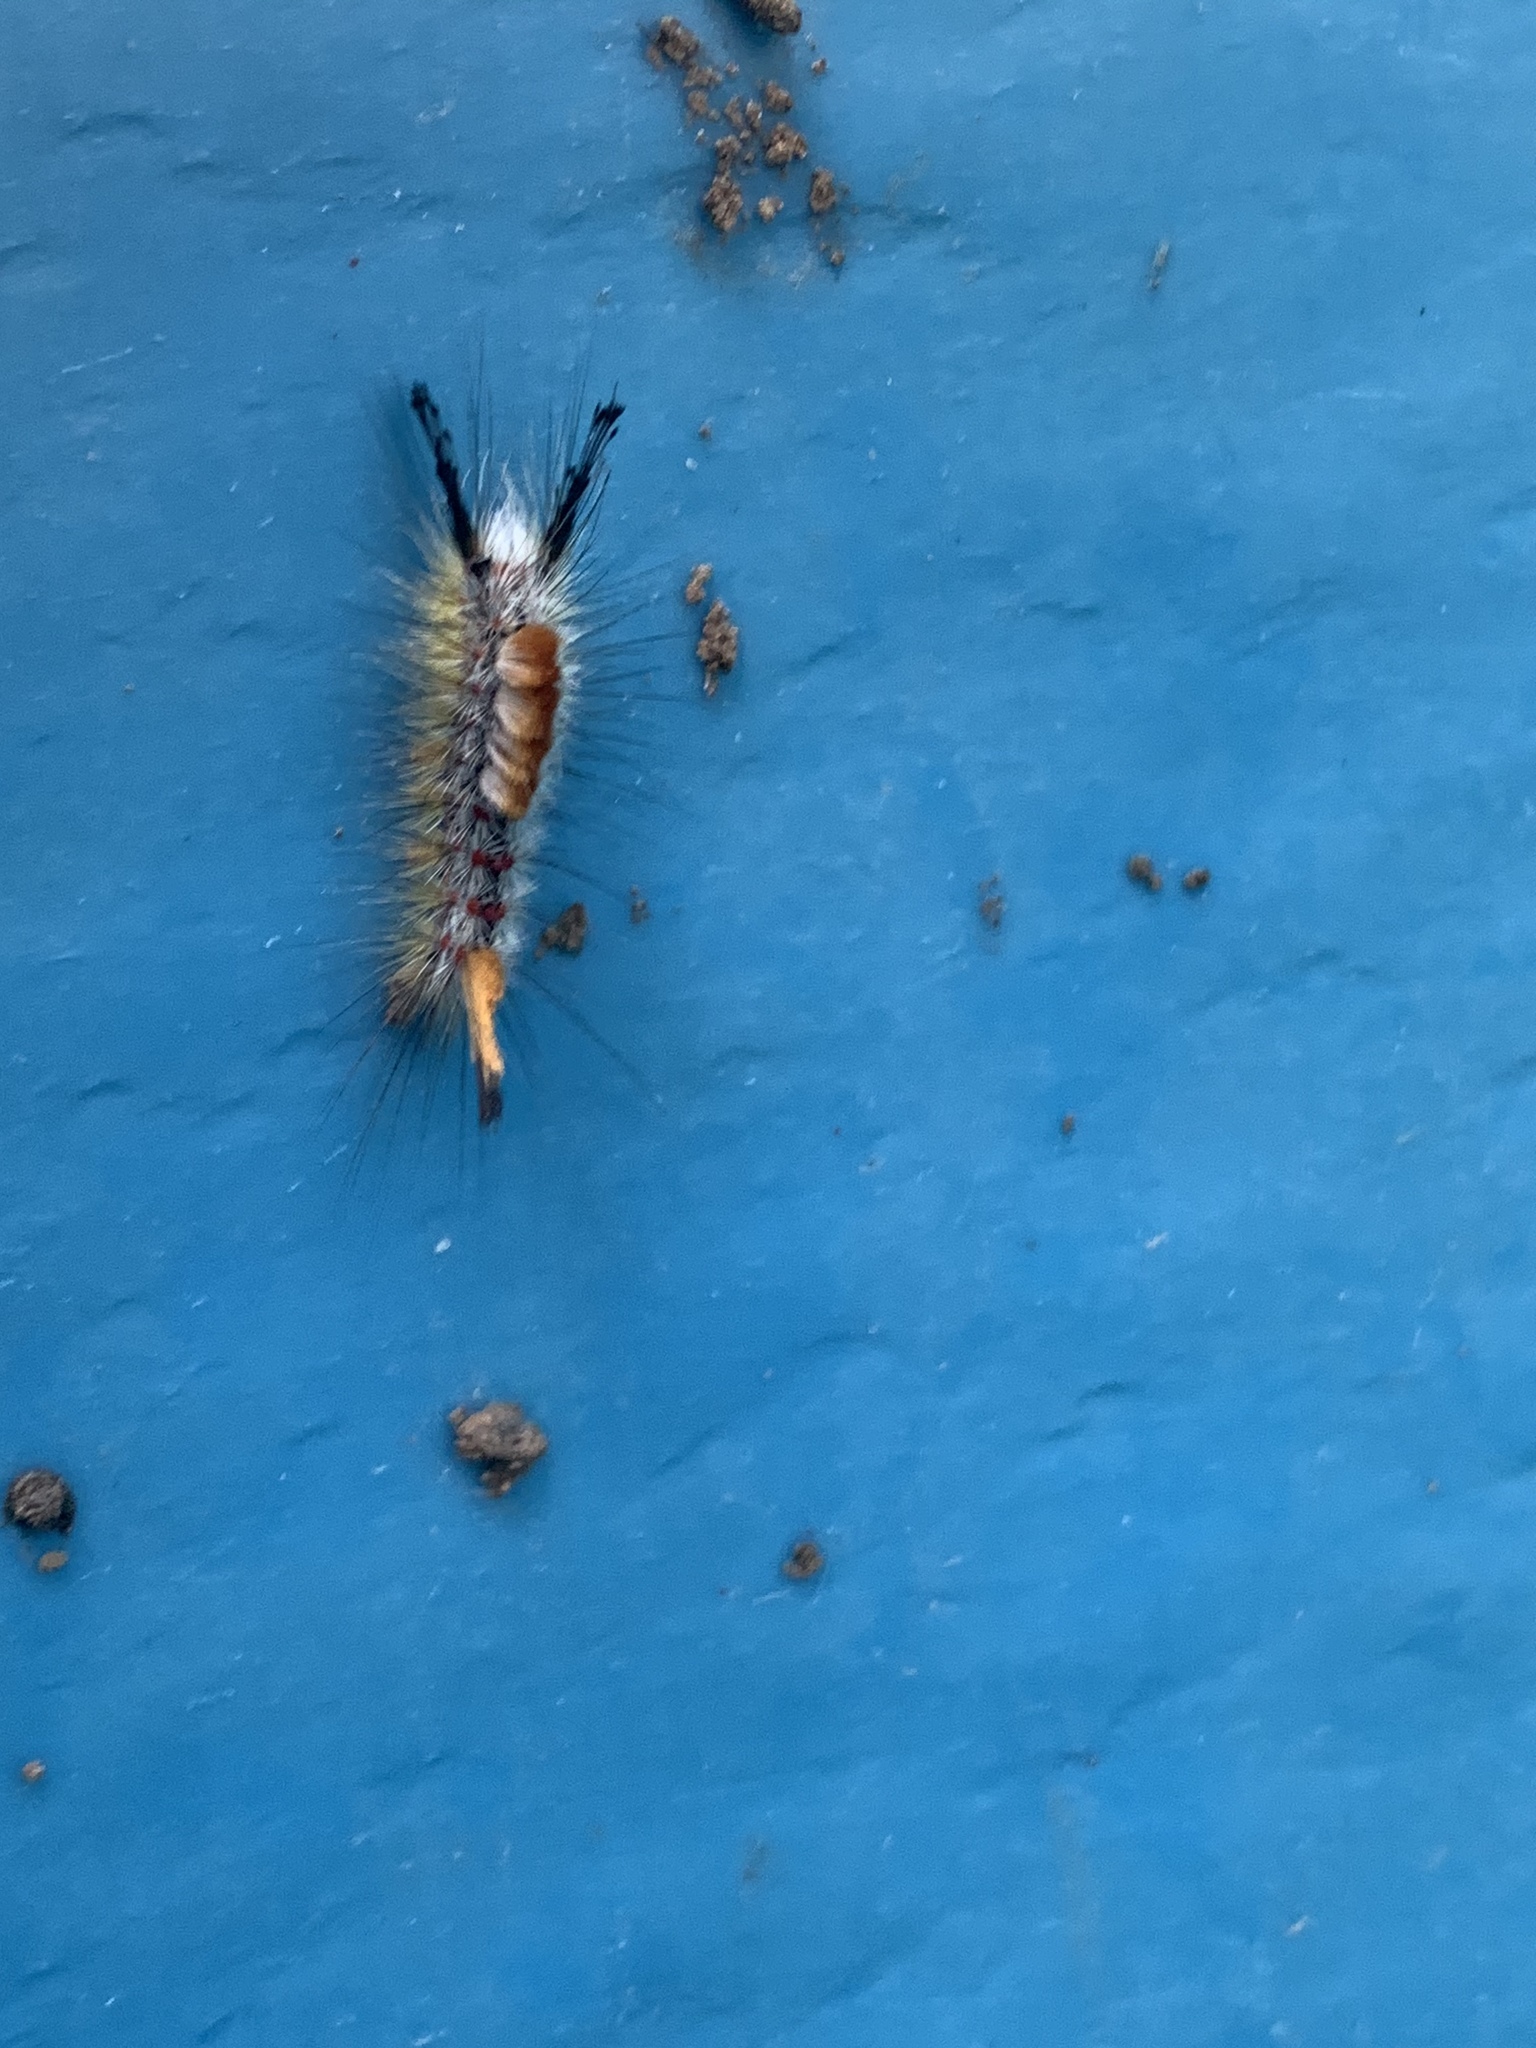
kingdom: Animalia
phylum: Arthropoda
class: Insecta
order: Lepidoptera
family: Erebidae
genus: Orgyia
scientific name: Orgyia pseudotsugata
